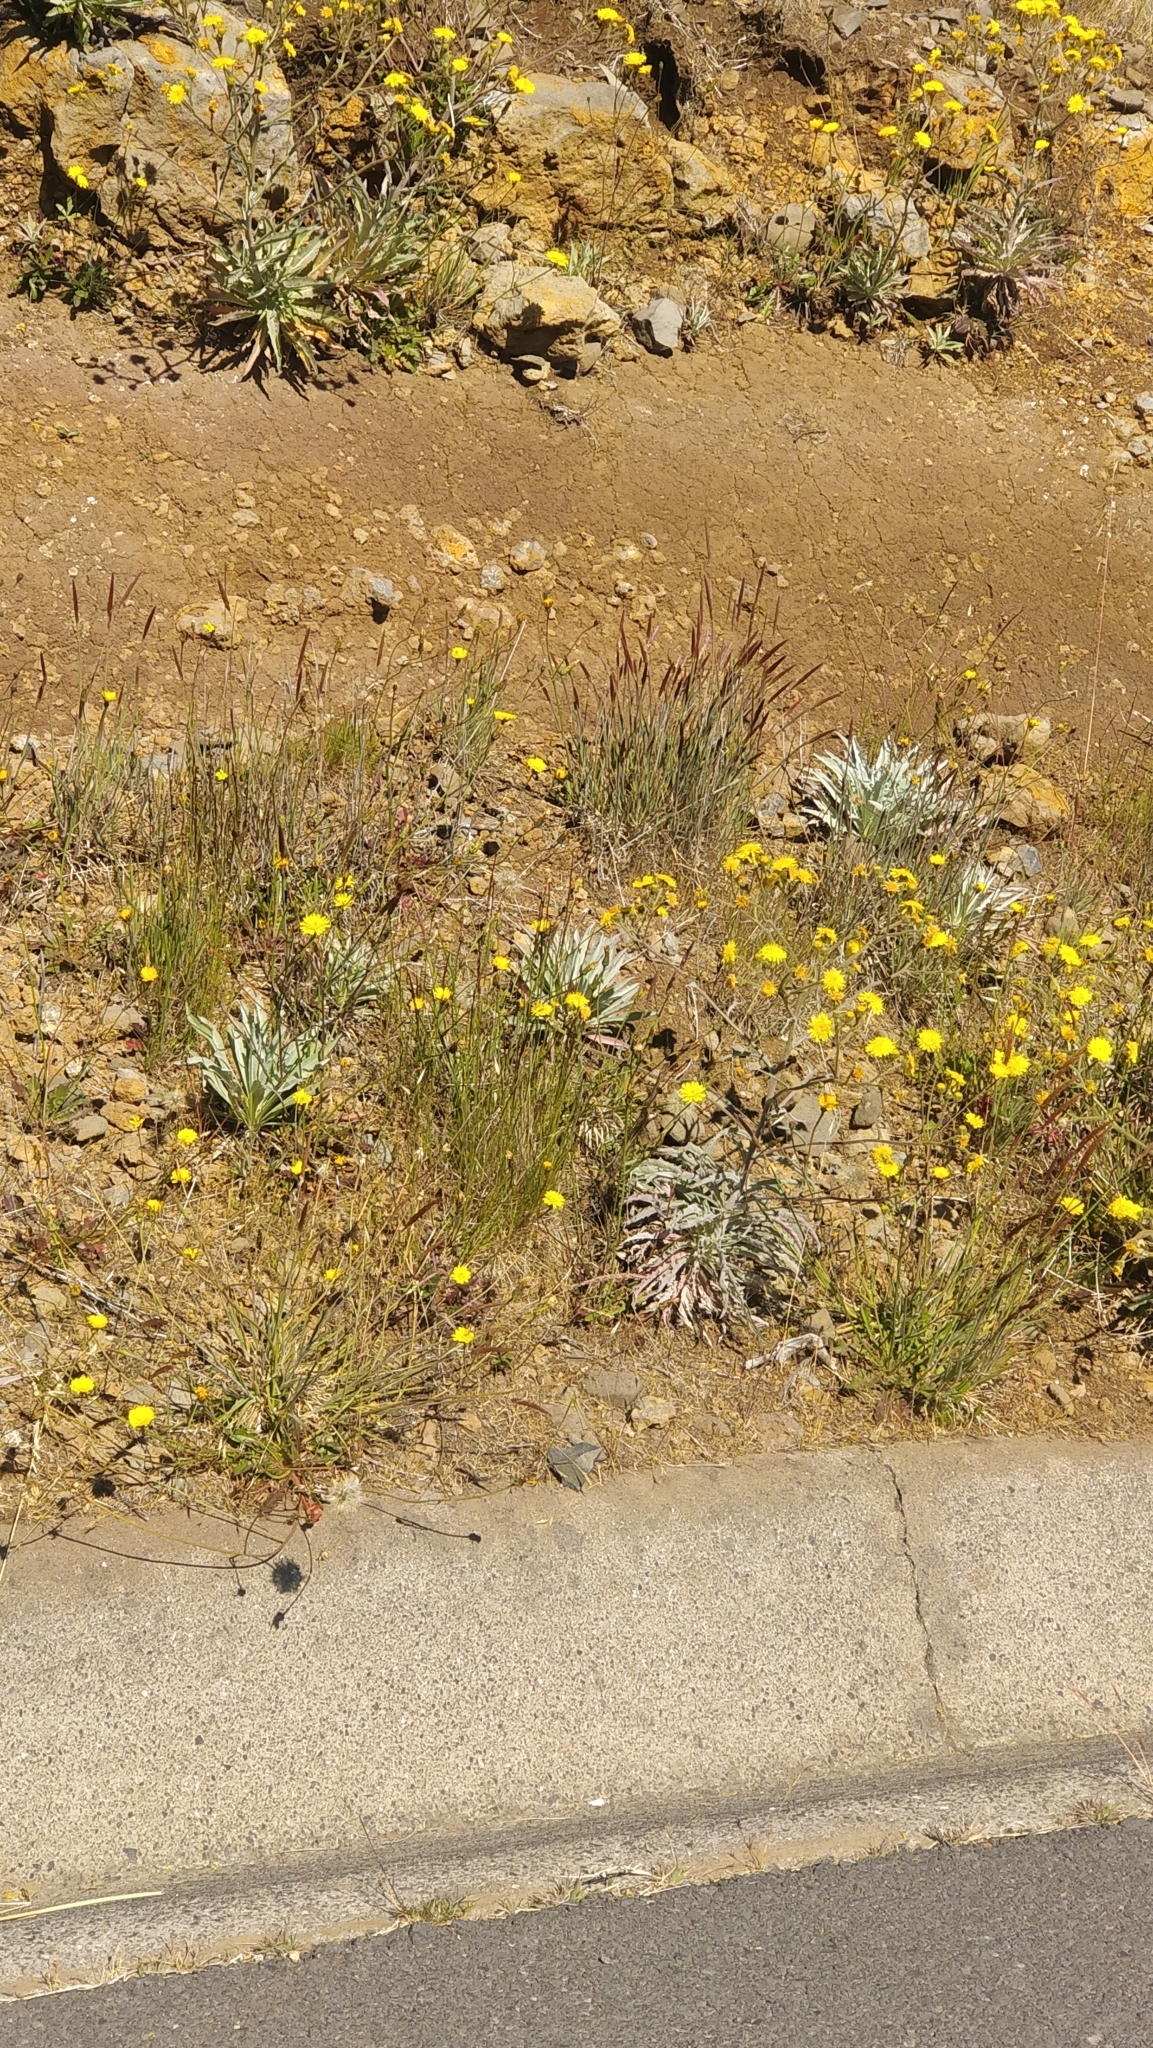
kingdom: Plantae
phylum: Tracheophyta
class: Magnoliopsida
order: Asterales
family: Asteraceae
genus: Andryala
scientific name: Andryala glandulosa
